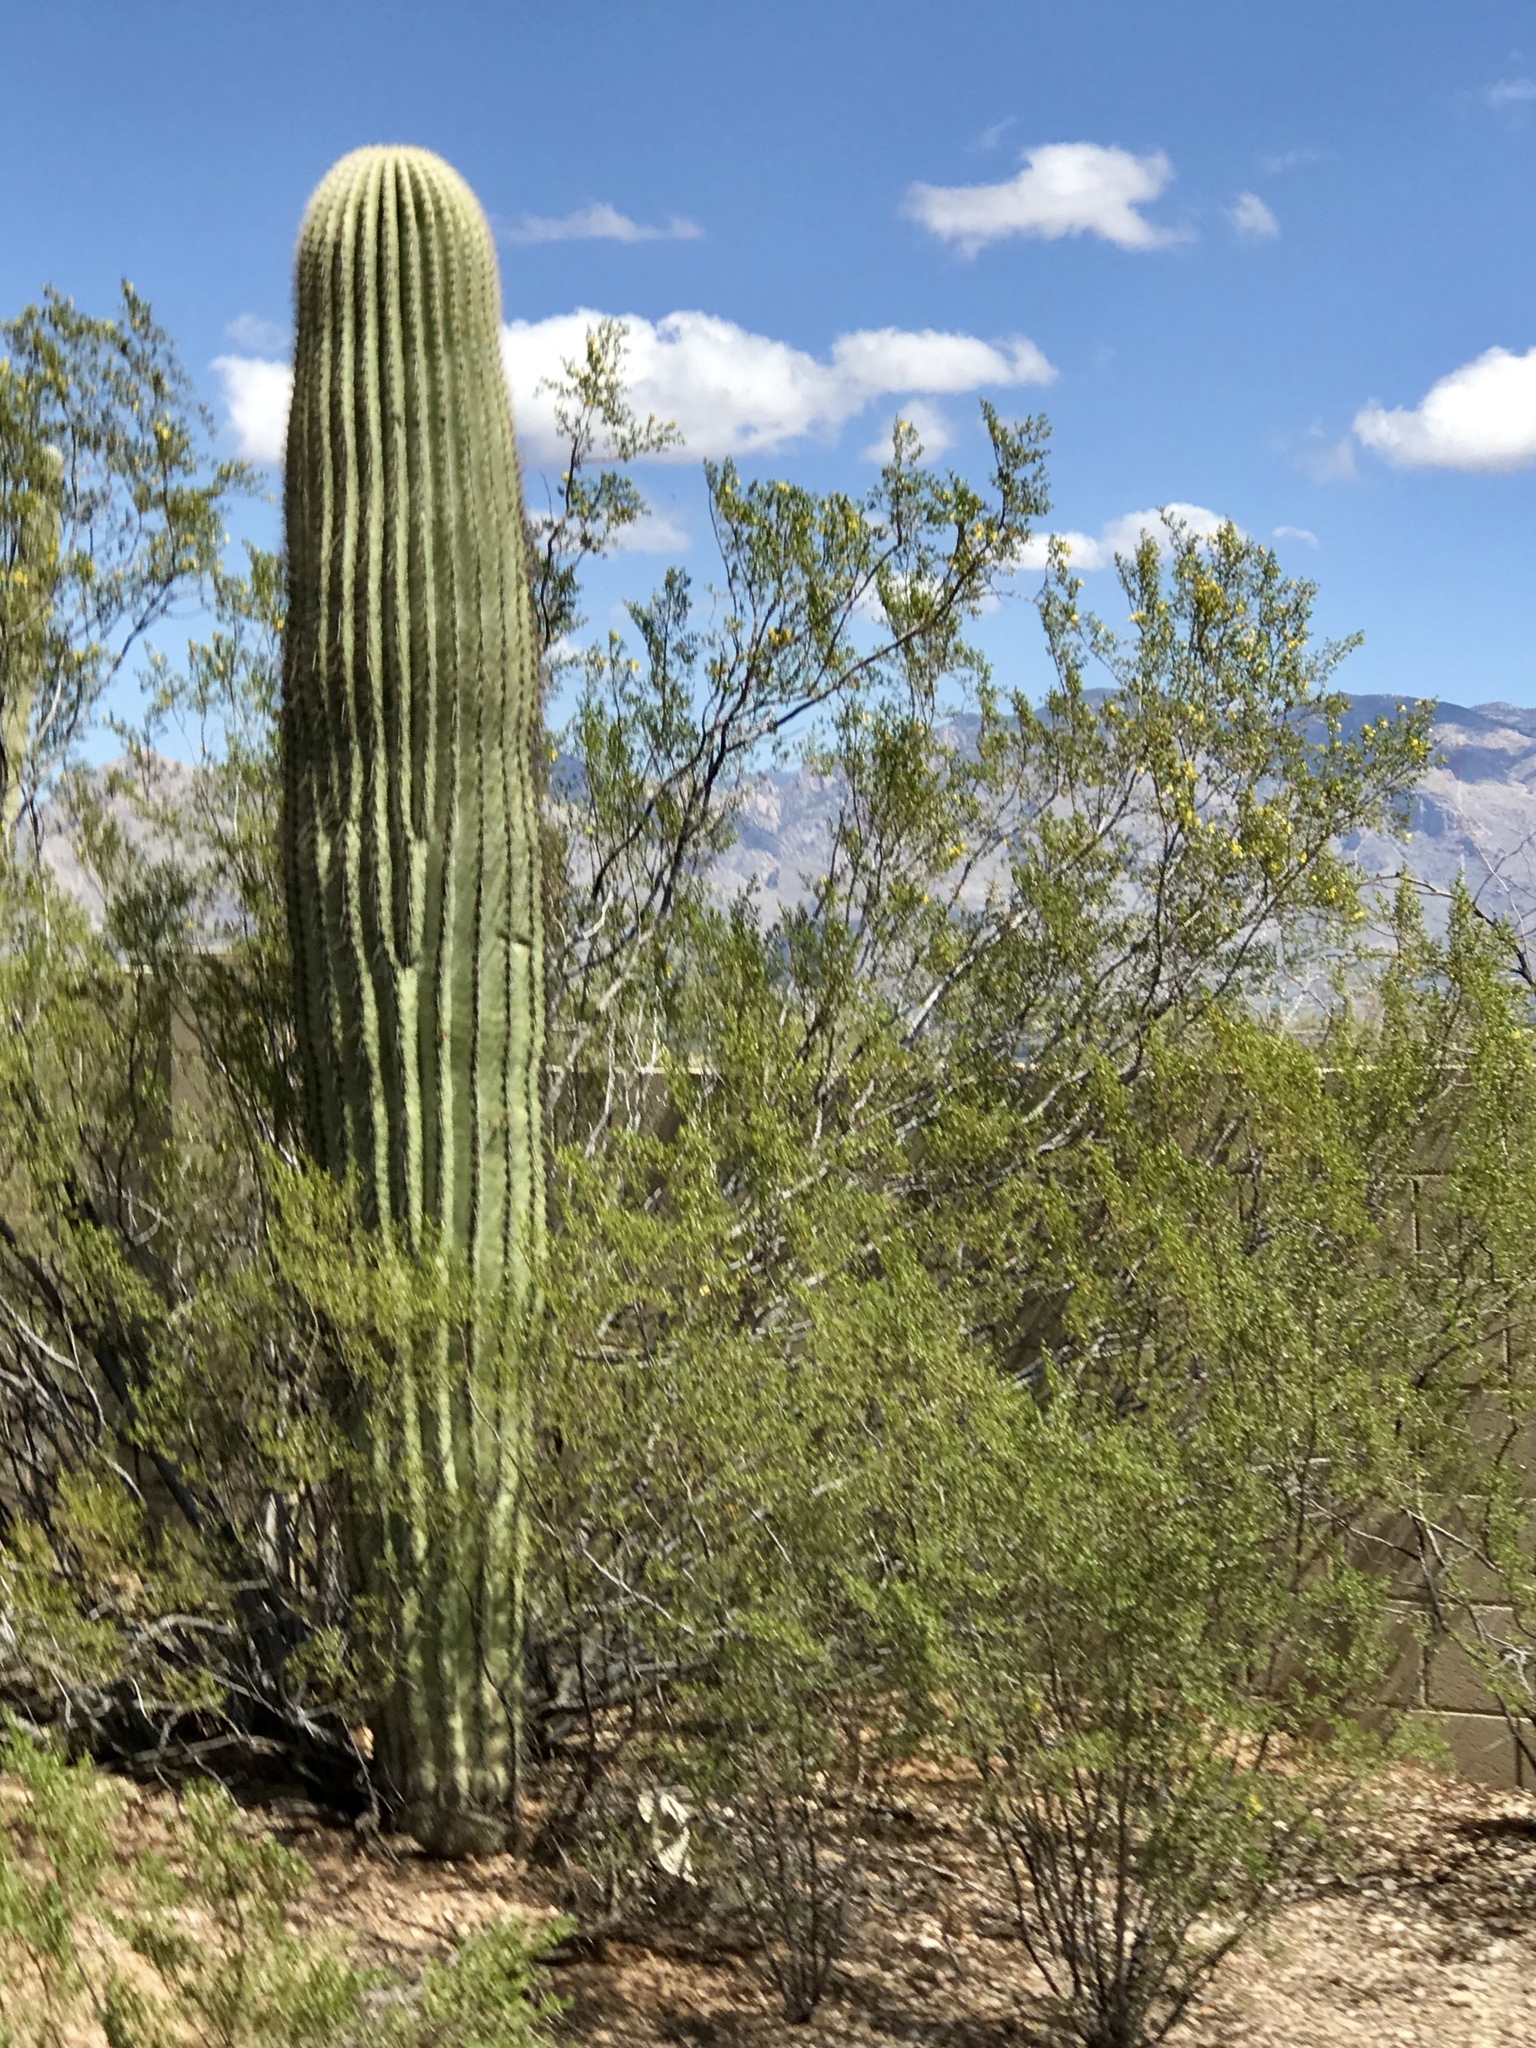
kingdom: Plantae
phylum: Tracheophyta
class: Magnoliopsida
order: Caryophyllales
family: Cactaceae
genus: Carnegiea
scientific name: Carnegiea gigantea
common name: Saguaro
